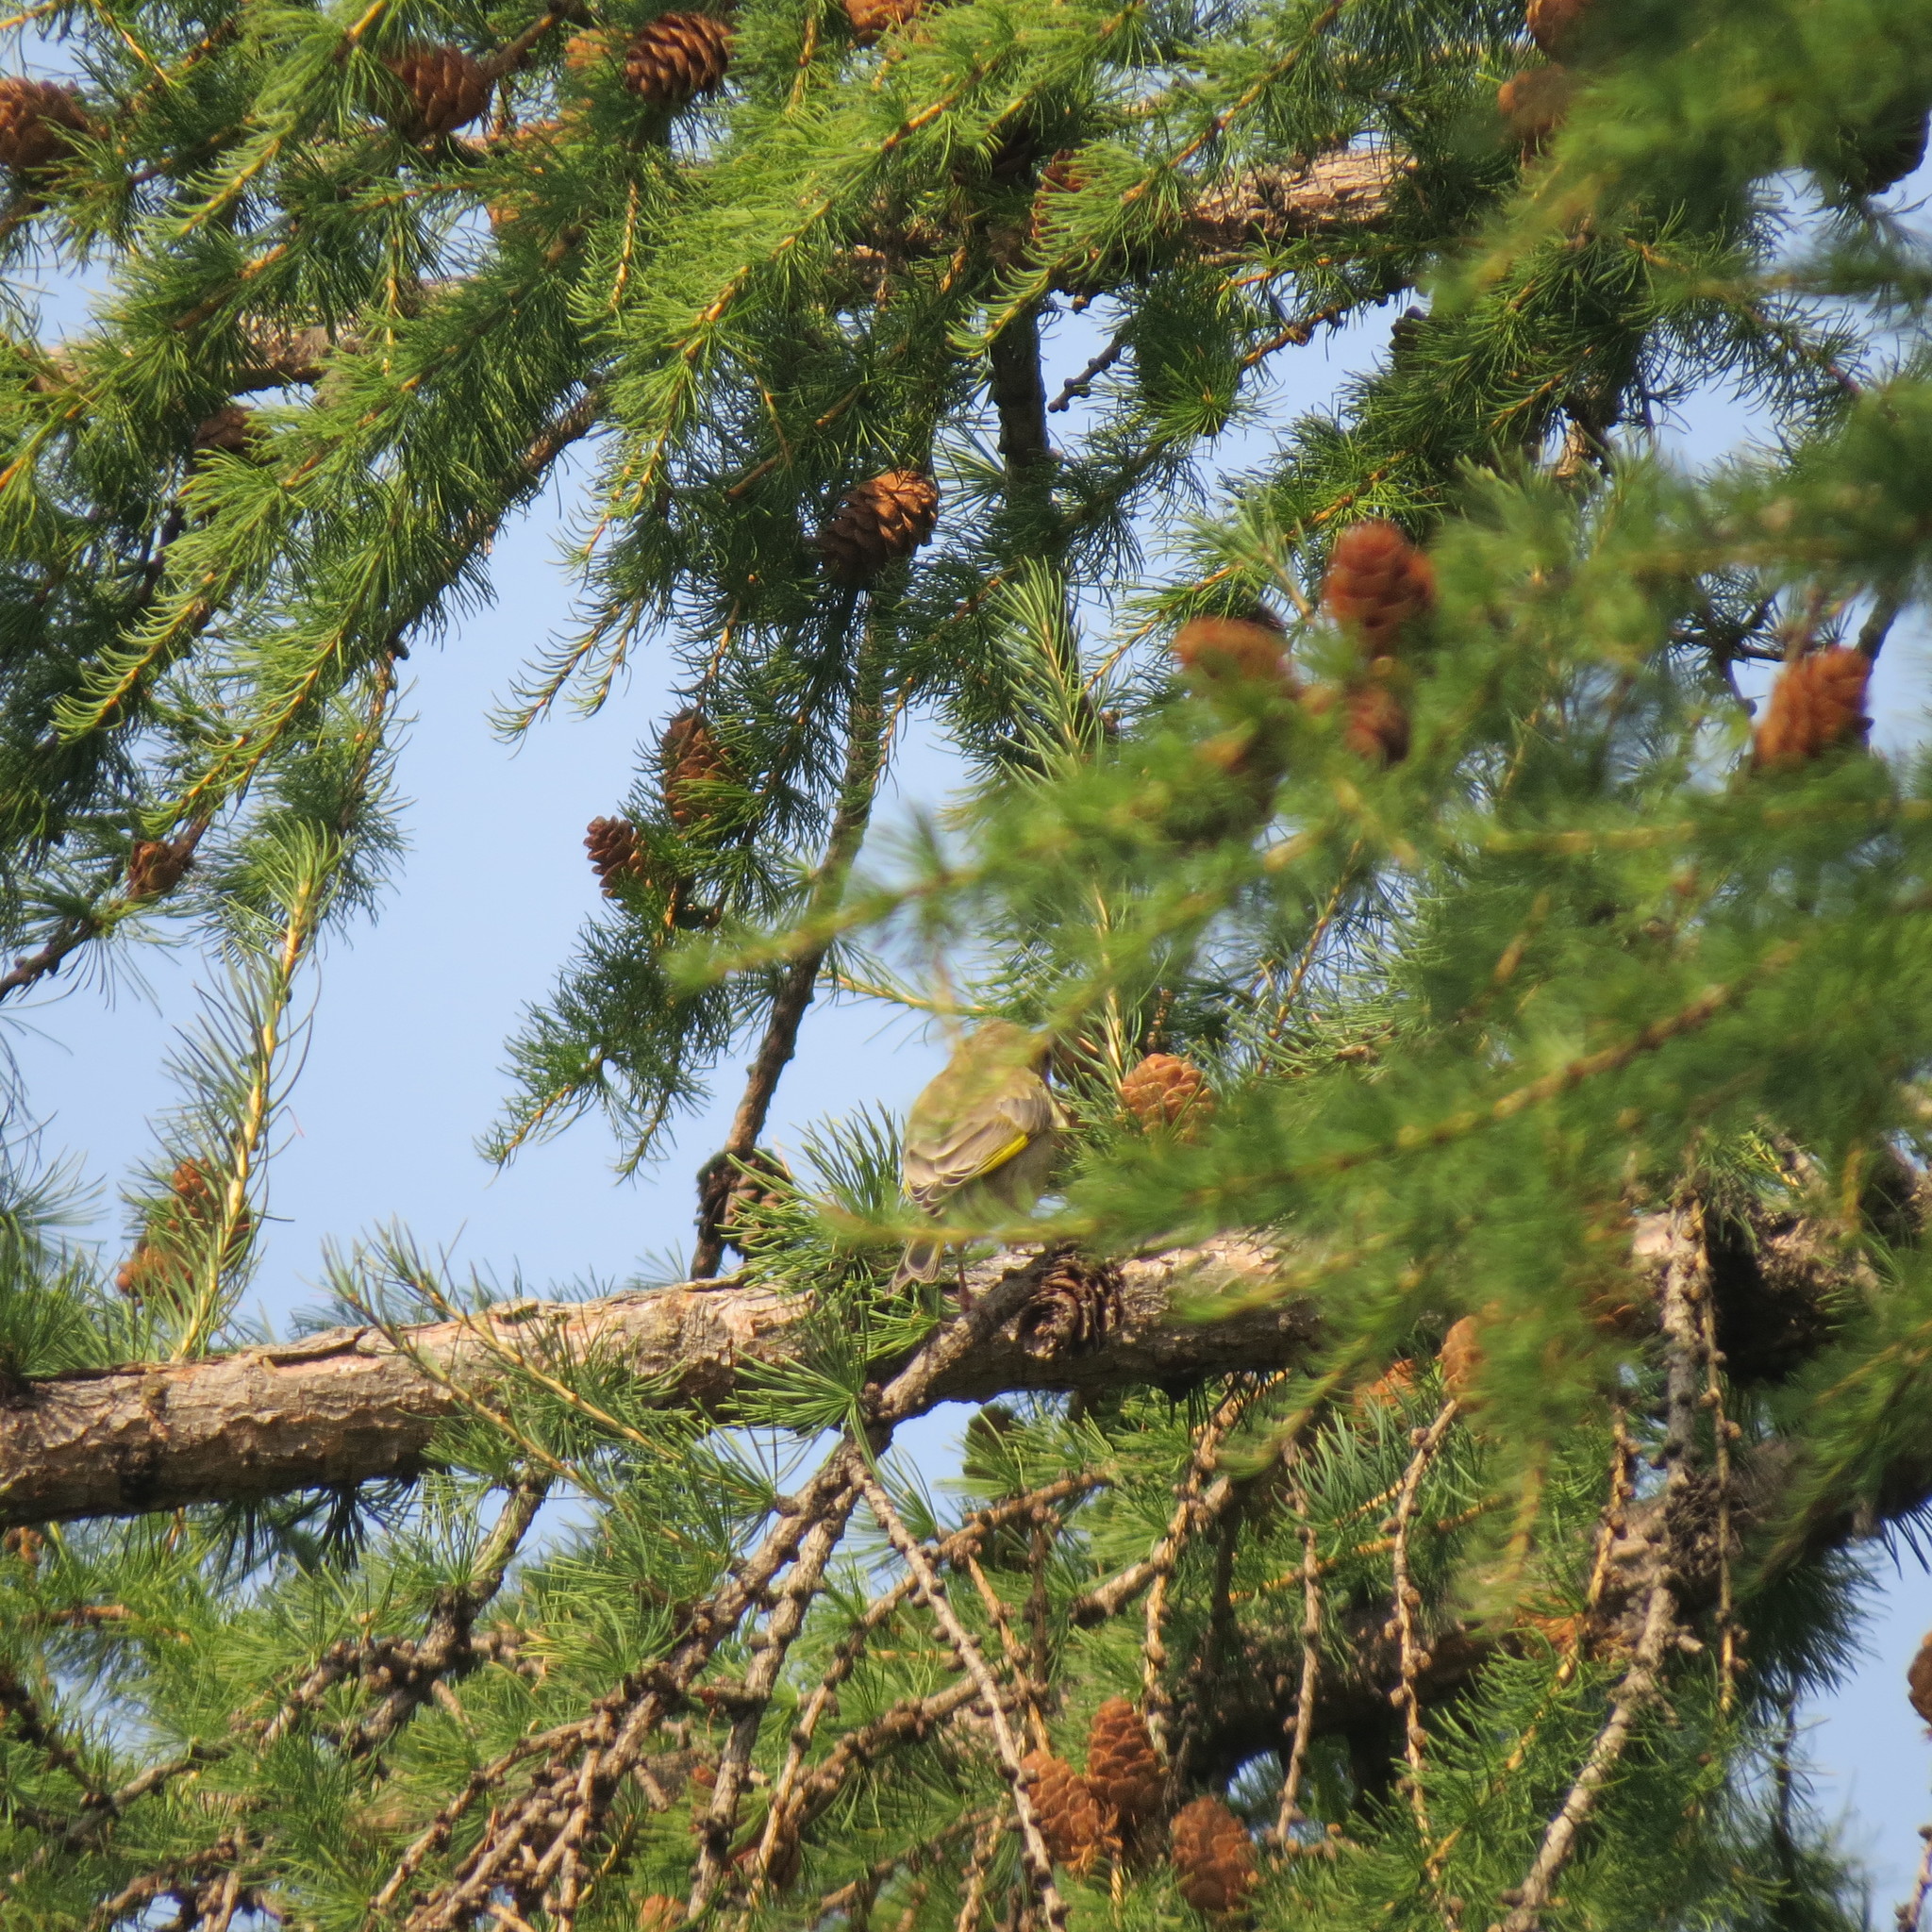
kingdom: Plantae
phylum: Tracheophyta
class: Liliopsida
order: Poales
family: Poaceae
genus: Chloris
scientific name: Chloris chloris
